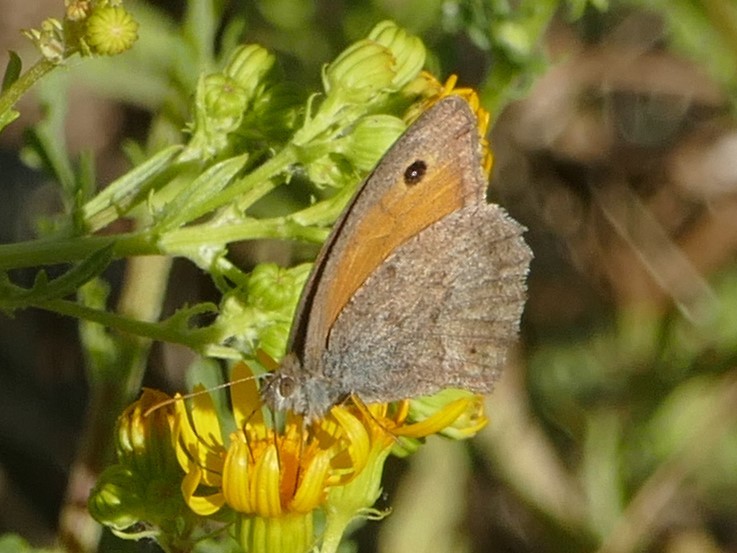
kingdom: Animalia
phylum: Arthropoda
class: Insecta
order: Lepidoptera
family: Nymphalidae
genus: Hyponephele
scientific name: Hyponephele lycaon
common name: Dusky meadow brown
